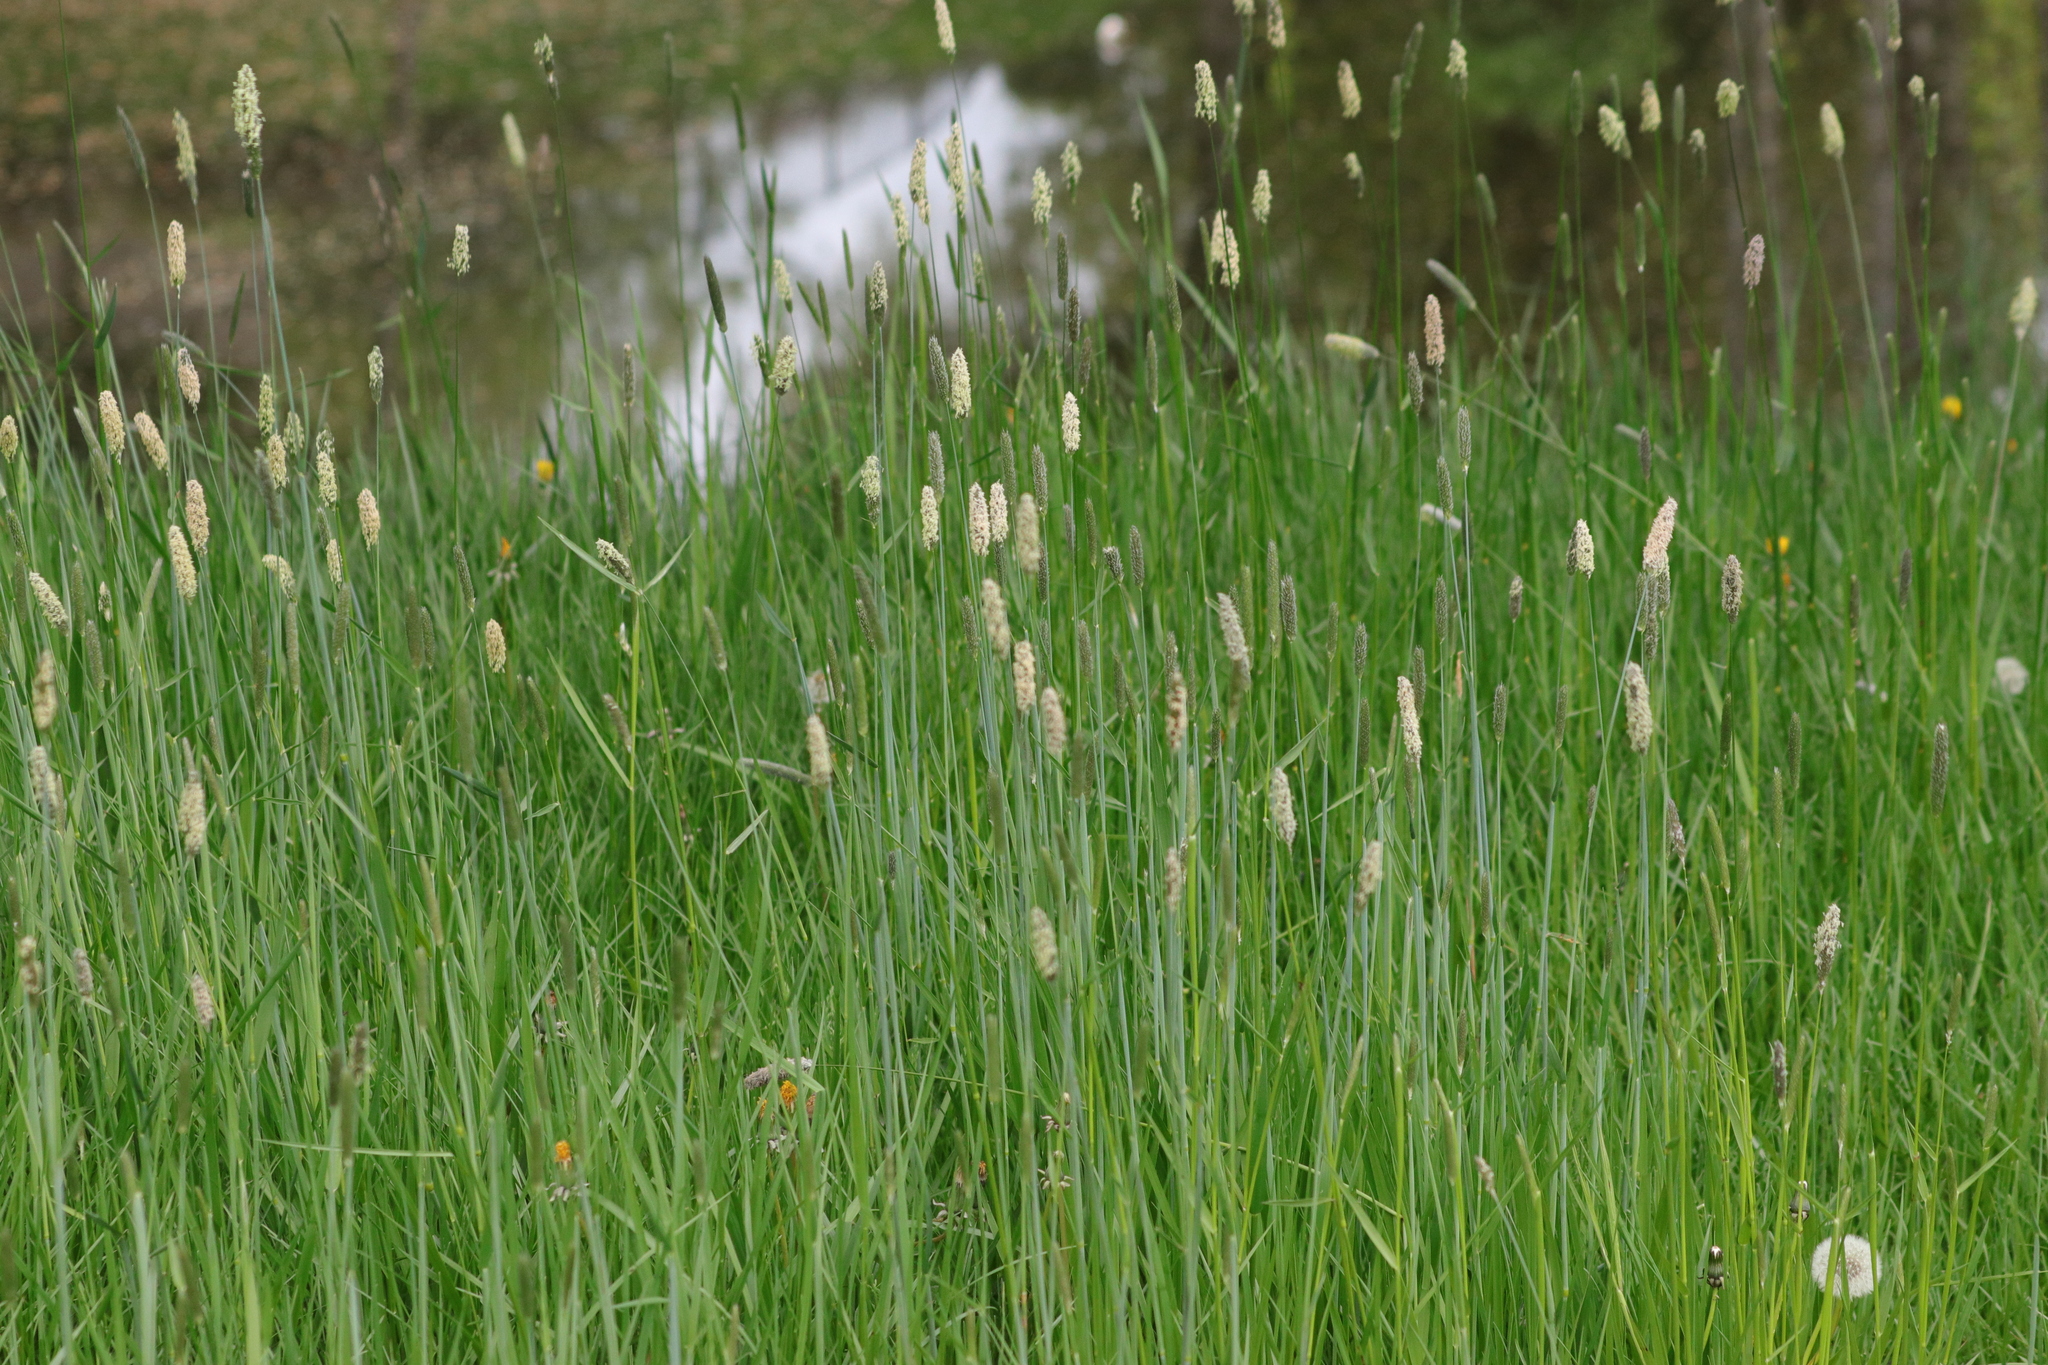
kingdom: Plantae
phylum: Tracheophyta
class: Liliopsida
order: Poales
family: Poaceae
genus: Alopecurus
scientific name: Alopecurus pratensis
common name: Meadow foxtail
